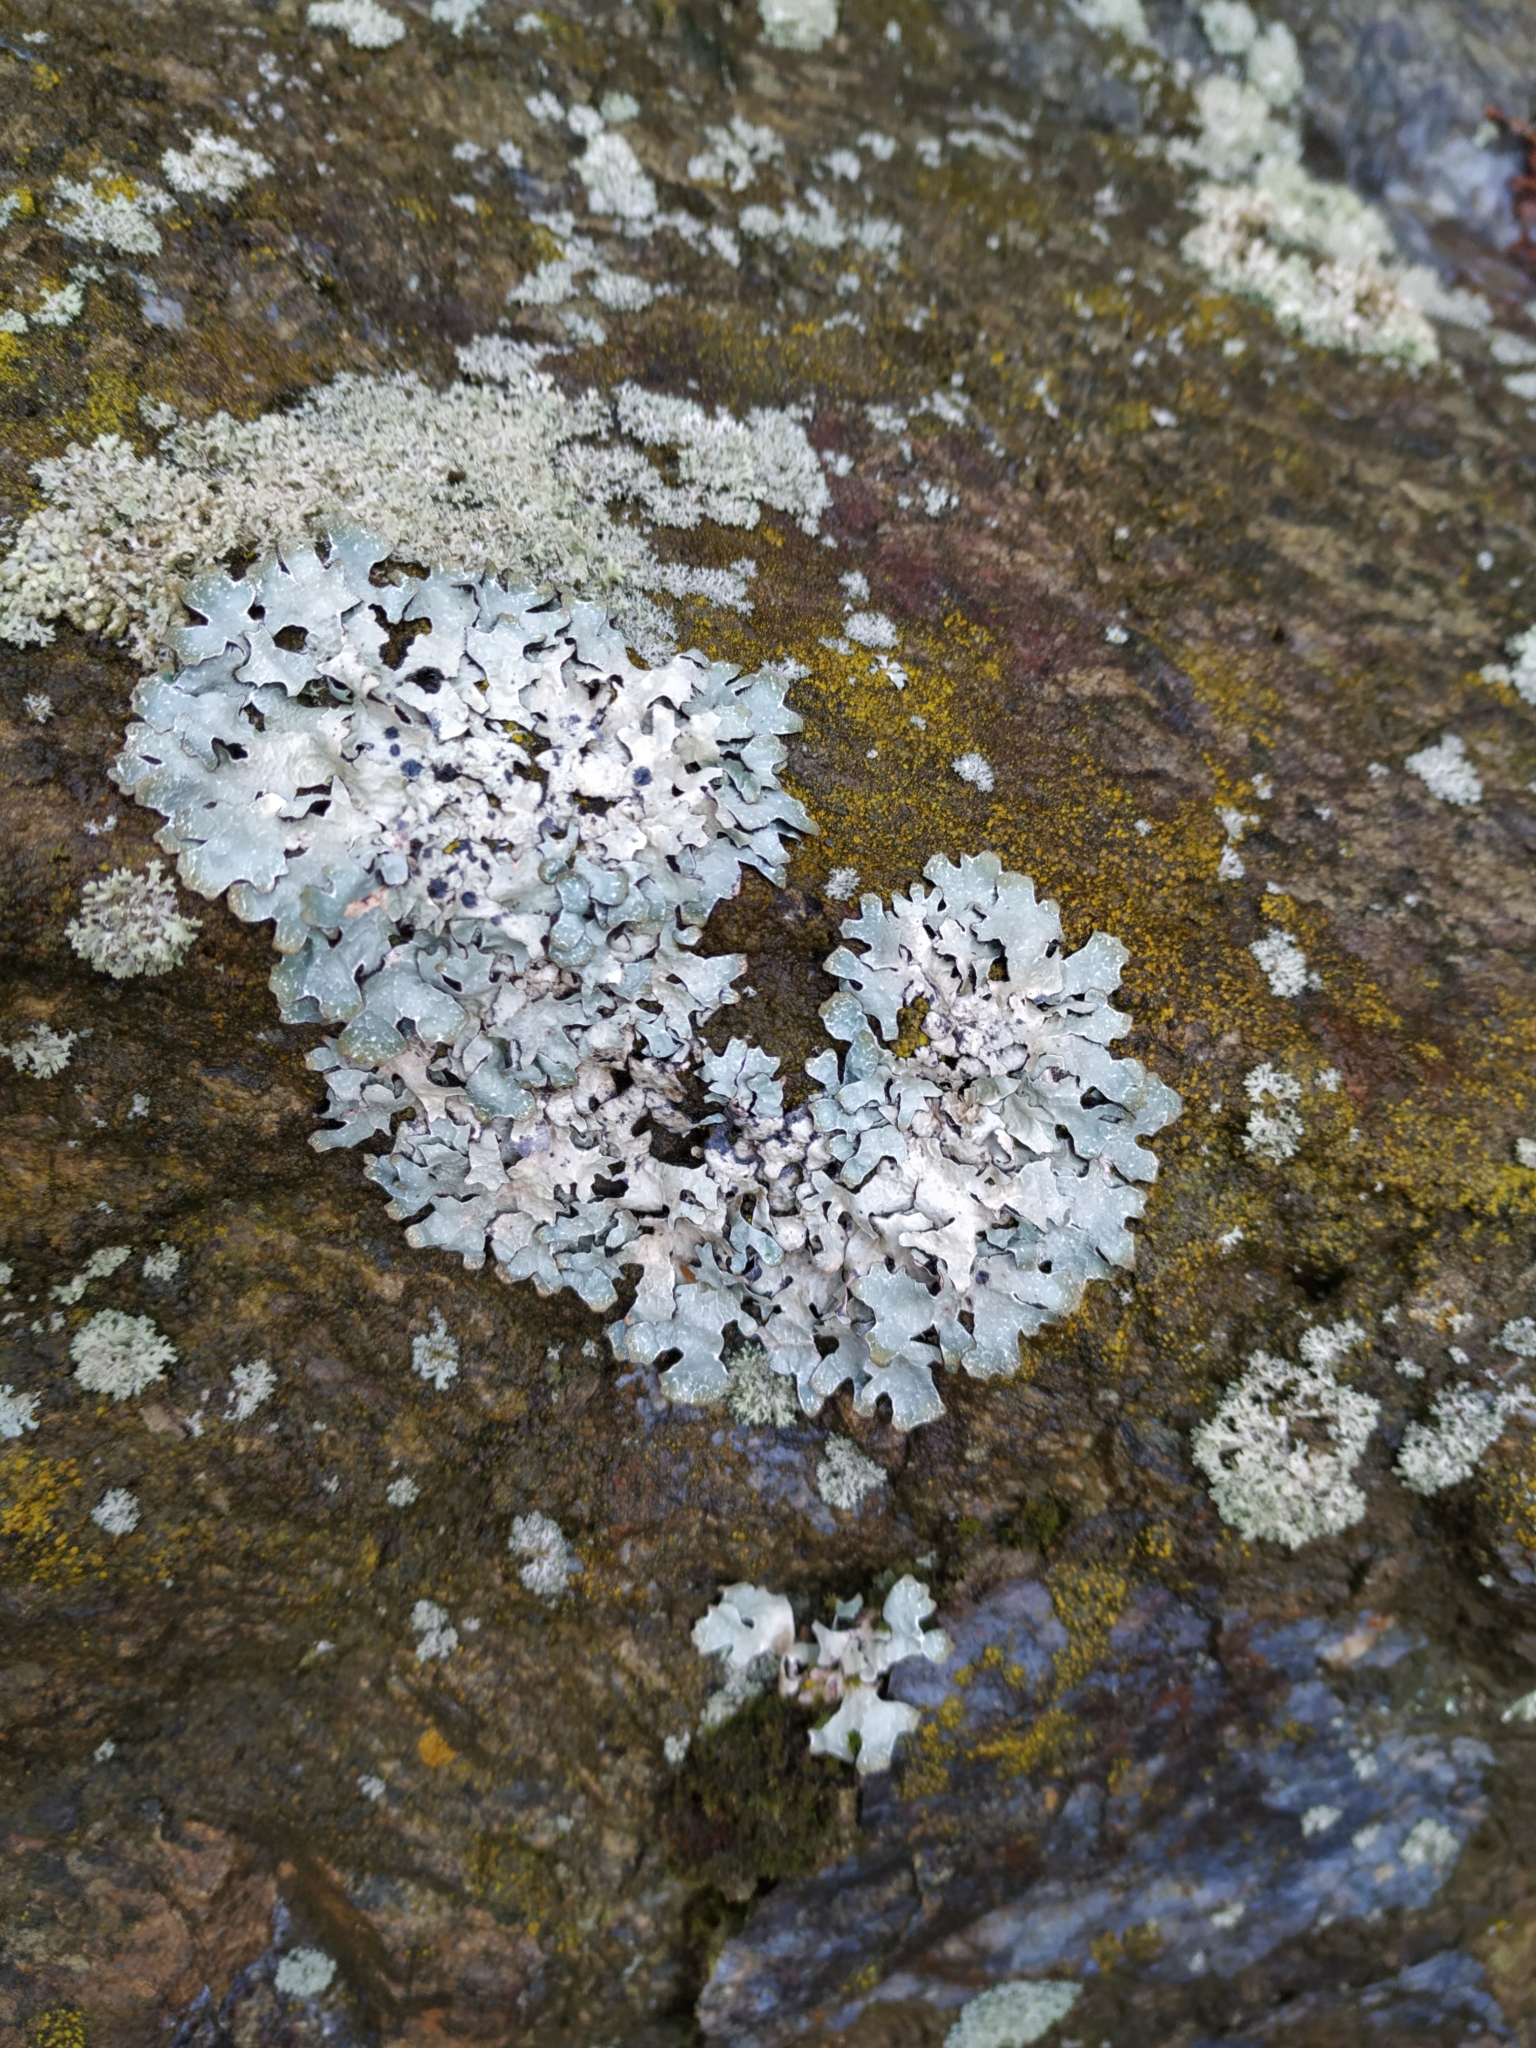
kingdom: Fungi
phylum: Ascomycota
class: Lecanoromycetes
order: Lecanorales
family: Parmeliaceae
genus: Parmelia
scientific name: Parmelia sulcata
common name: Netted shield lichen
